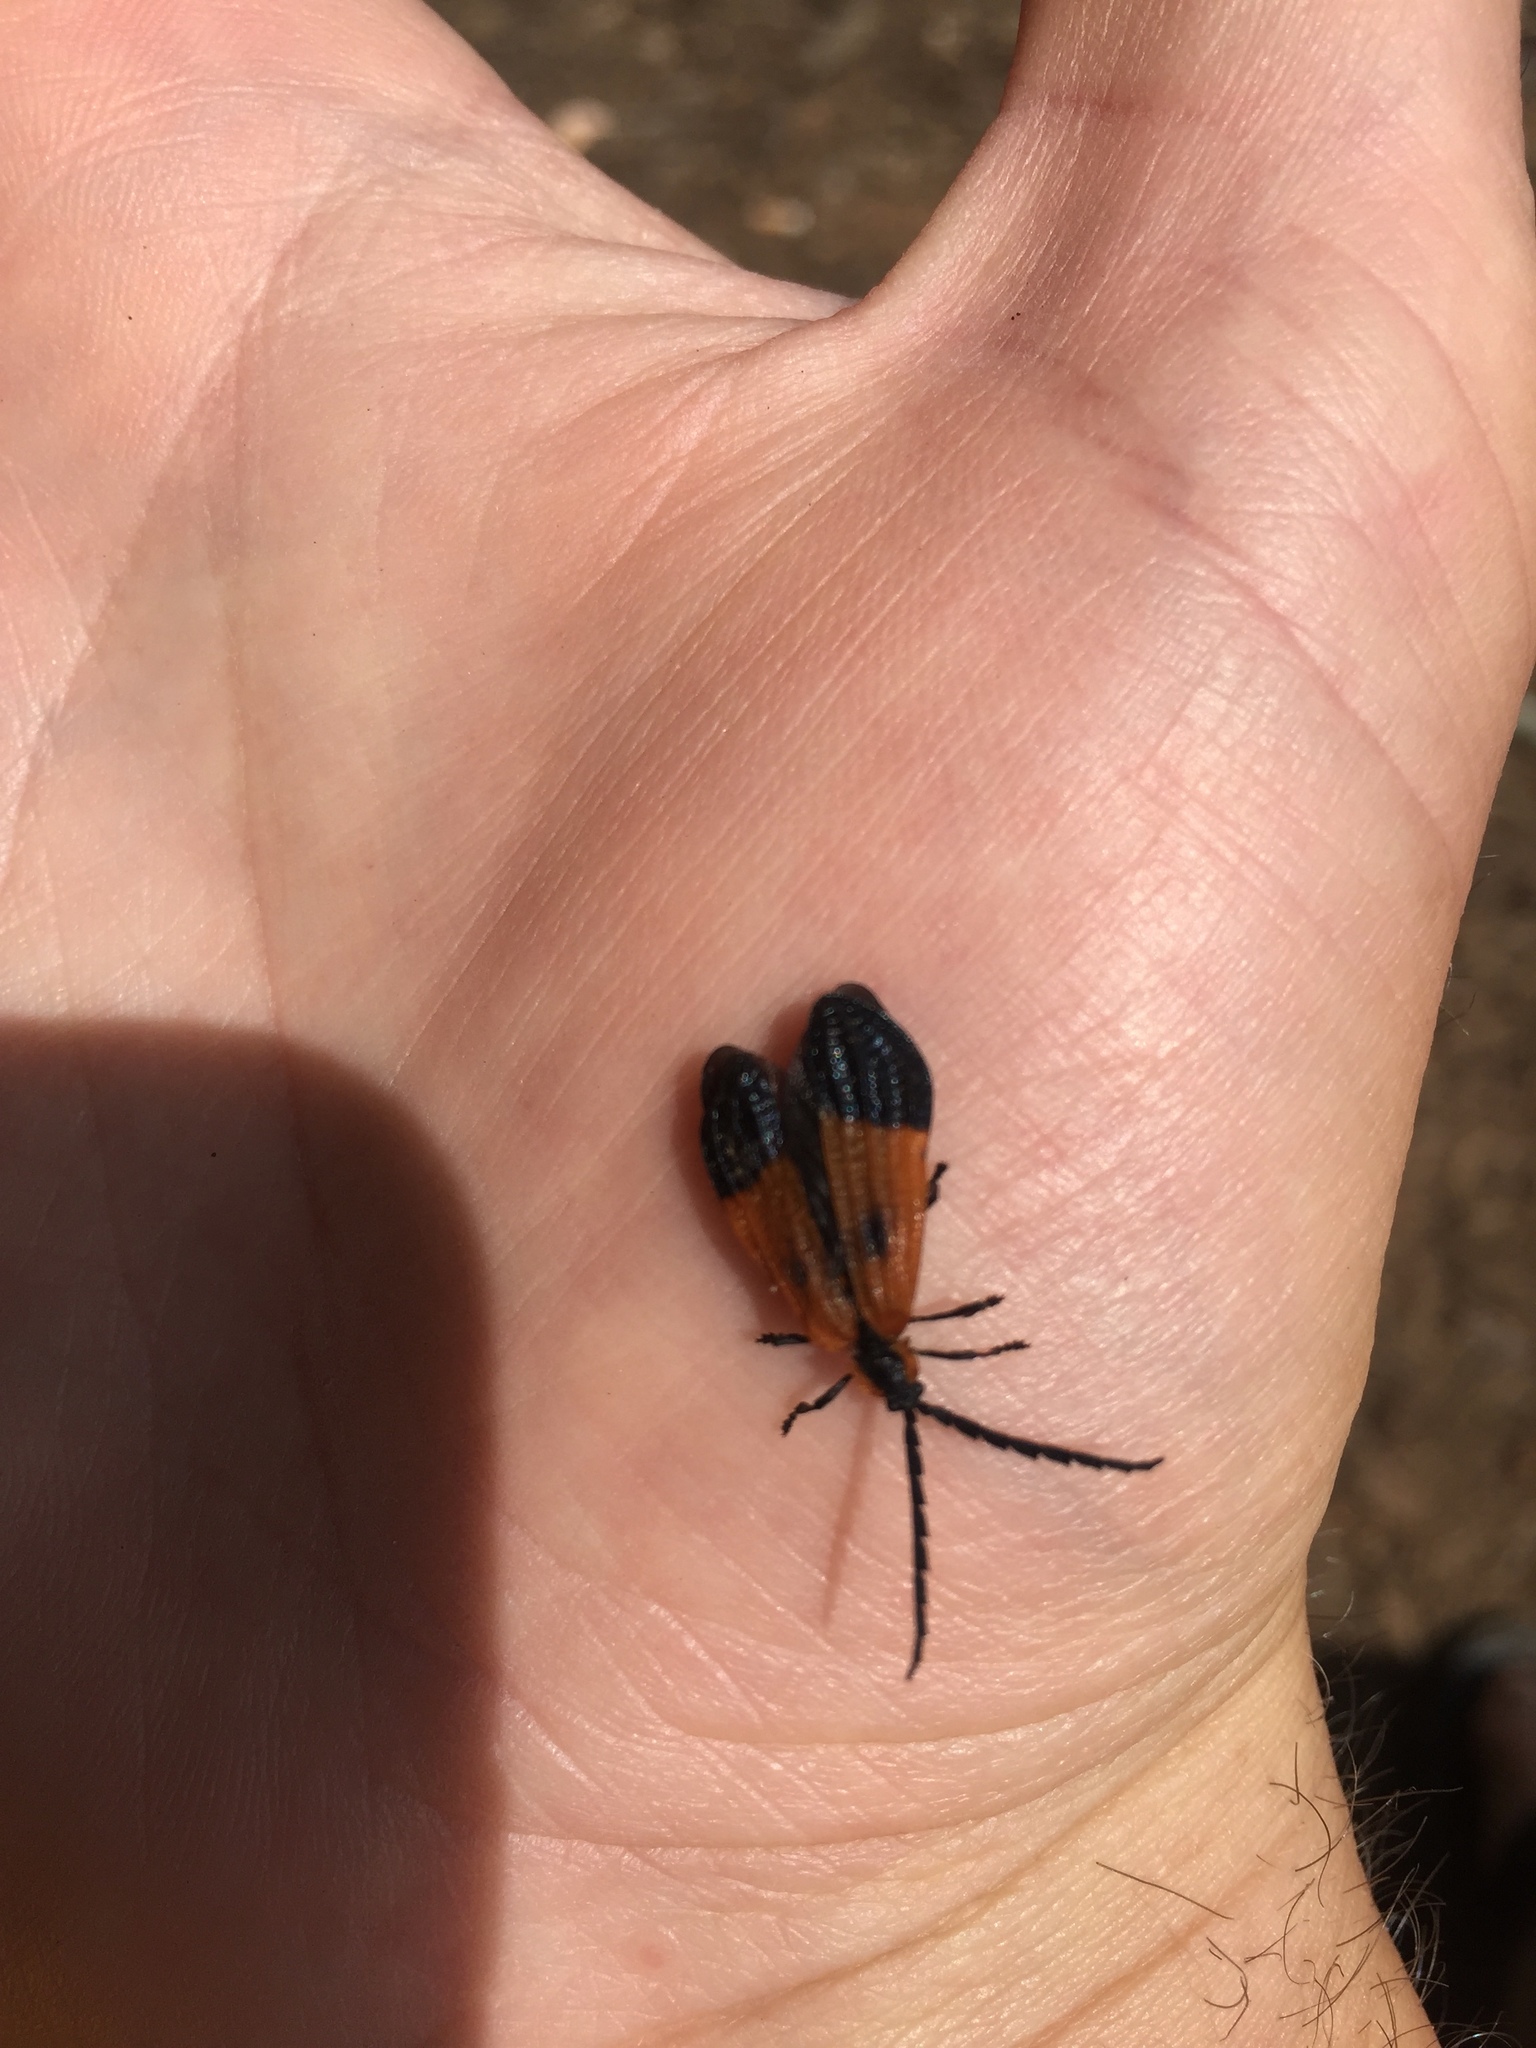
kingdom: Animalia
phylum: Arthropoda
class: Insecta
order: Coleoptera
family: Lycidae
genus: Calopteron
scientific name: Calopteron terminale
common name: End band net-winged beetle
